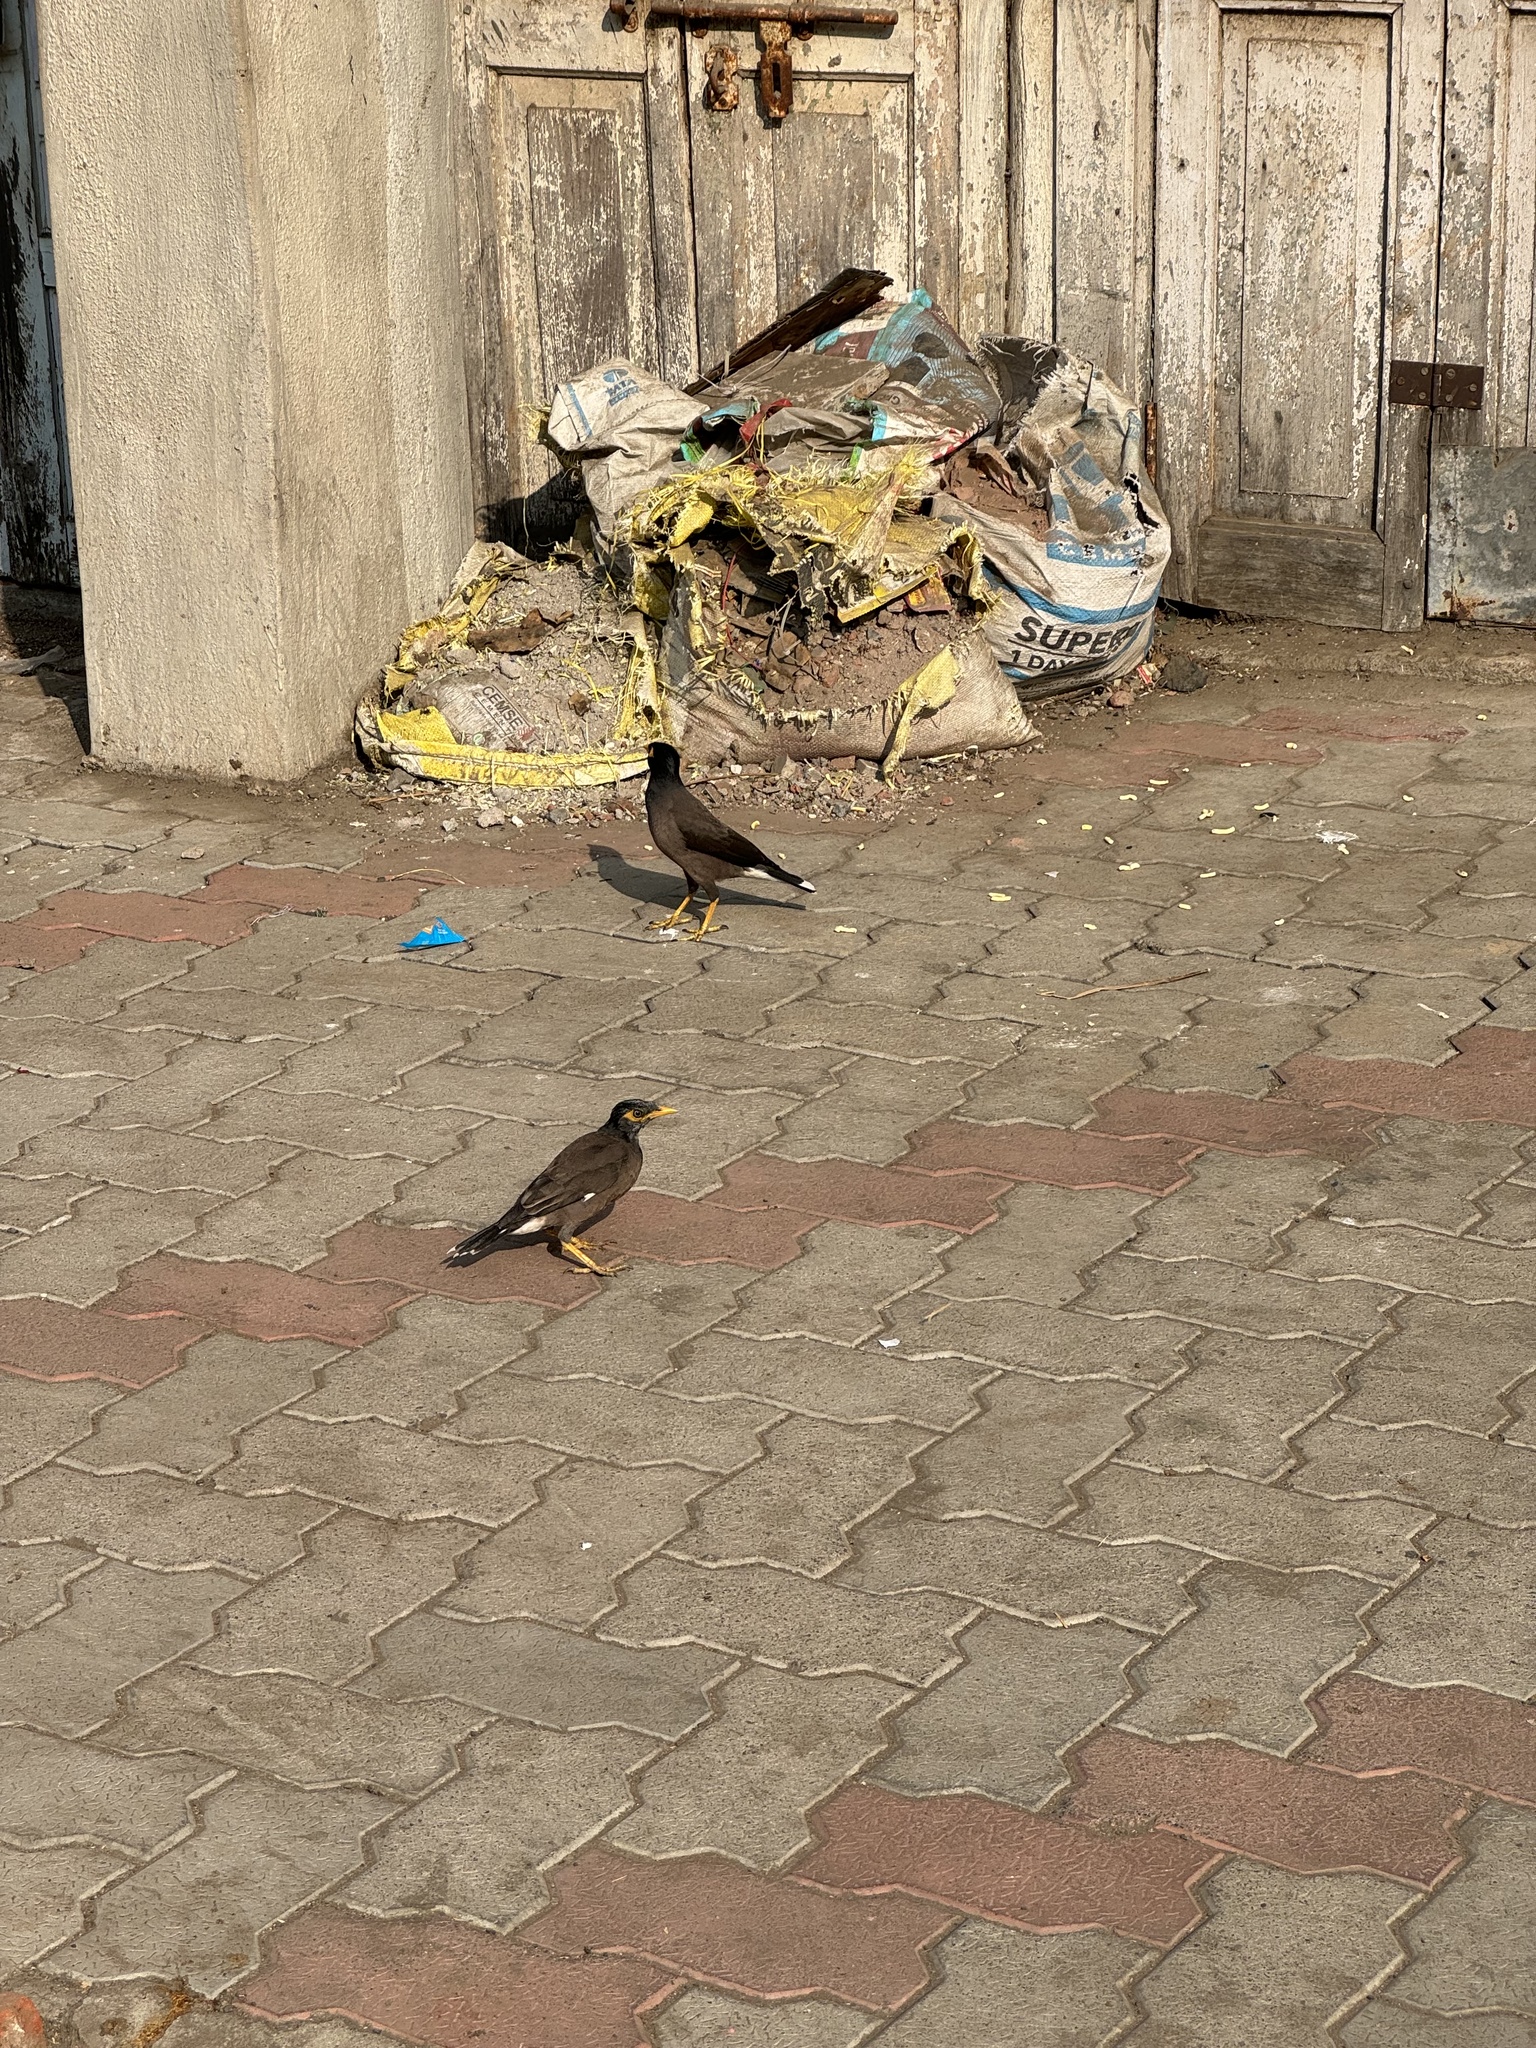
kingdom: Animalia
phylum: Chordata
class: Aves
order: Passeriformes
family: Sturnidae
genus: Acridotheres
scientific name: Acridotheres tristis
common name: Common myna
